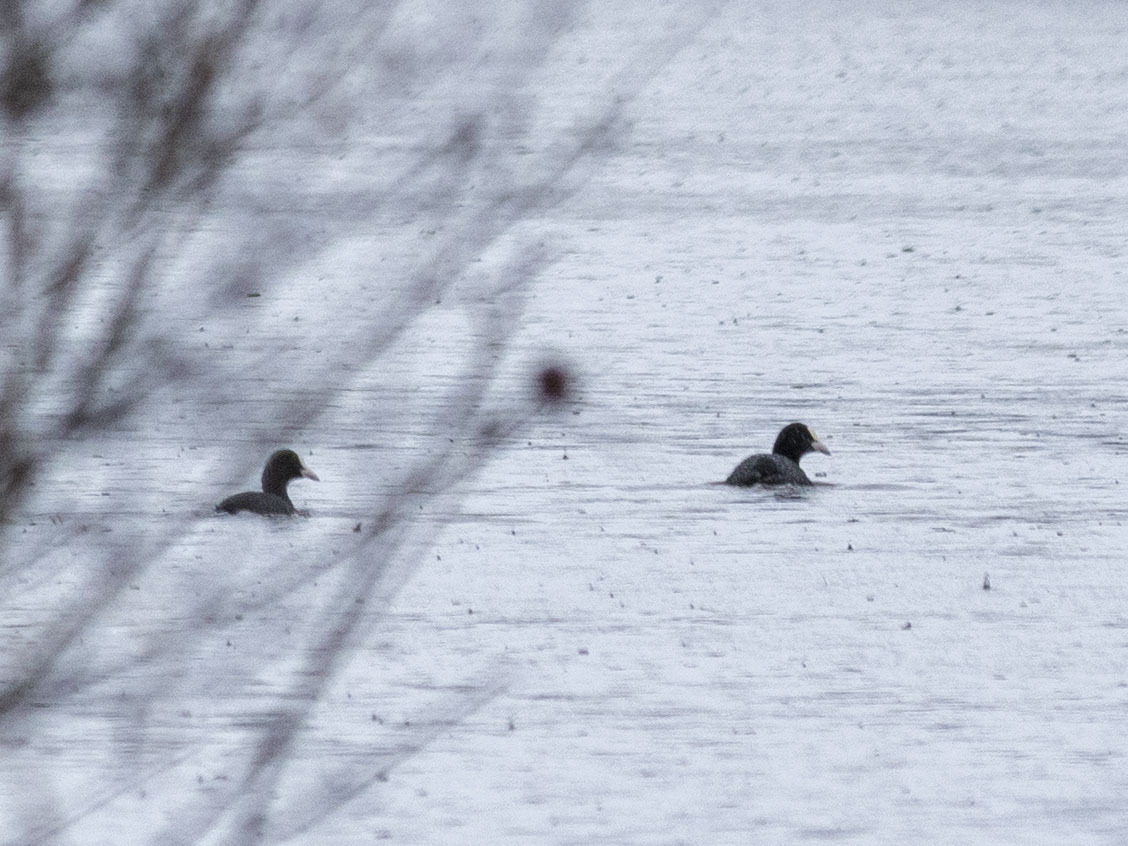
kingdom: Animalia
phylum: Chordata
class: Aves
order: Gruiformes
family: Rallidae
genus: Fulica
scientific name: Fulica atra
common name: Eurasian coot
